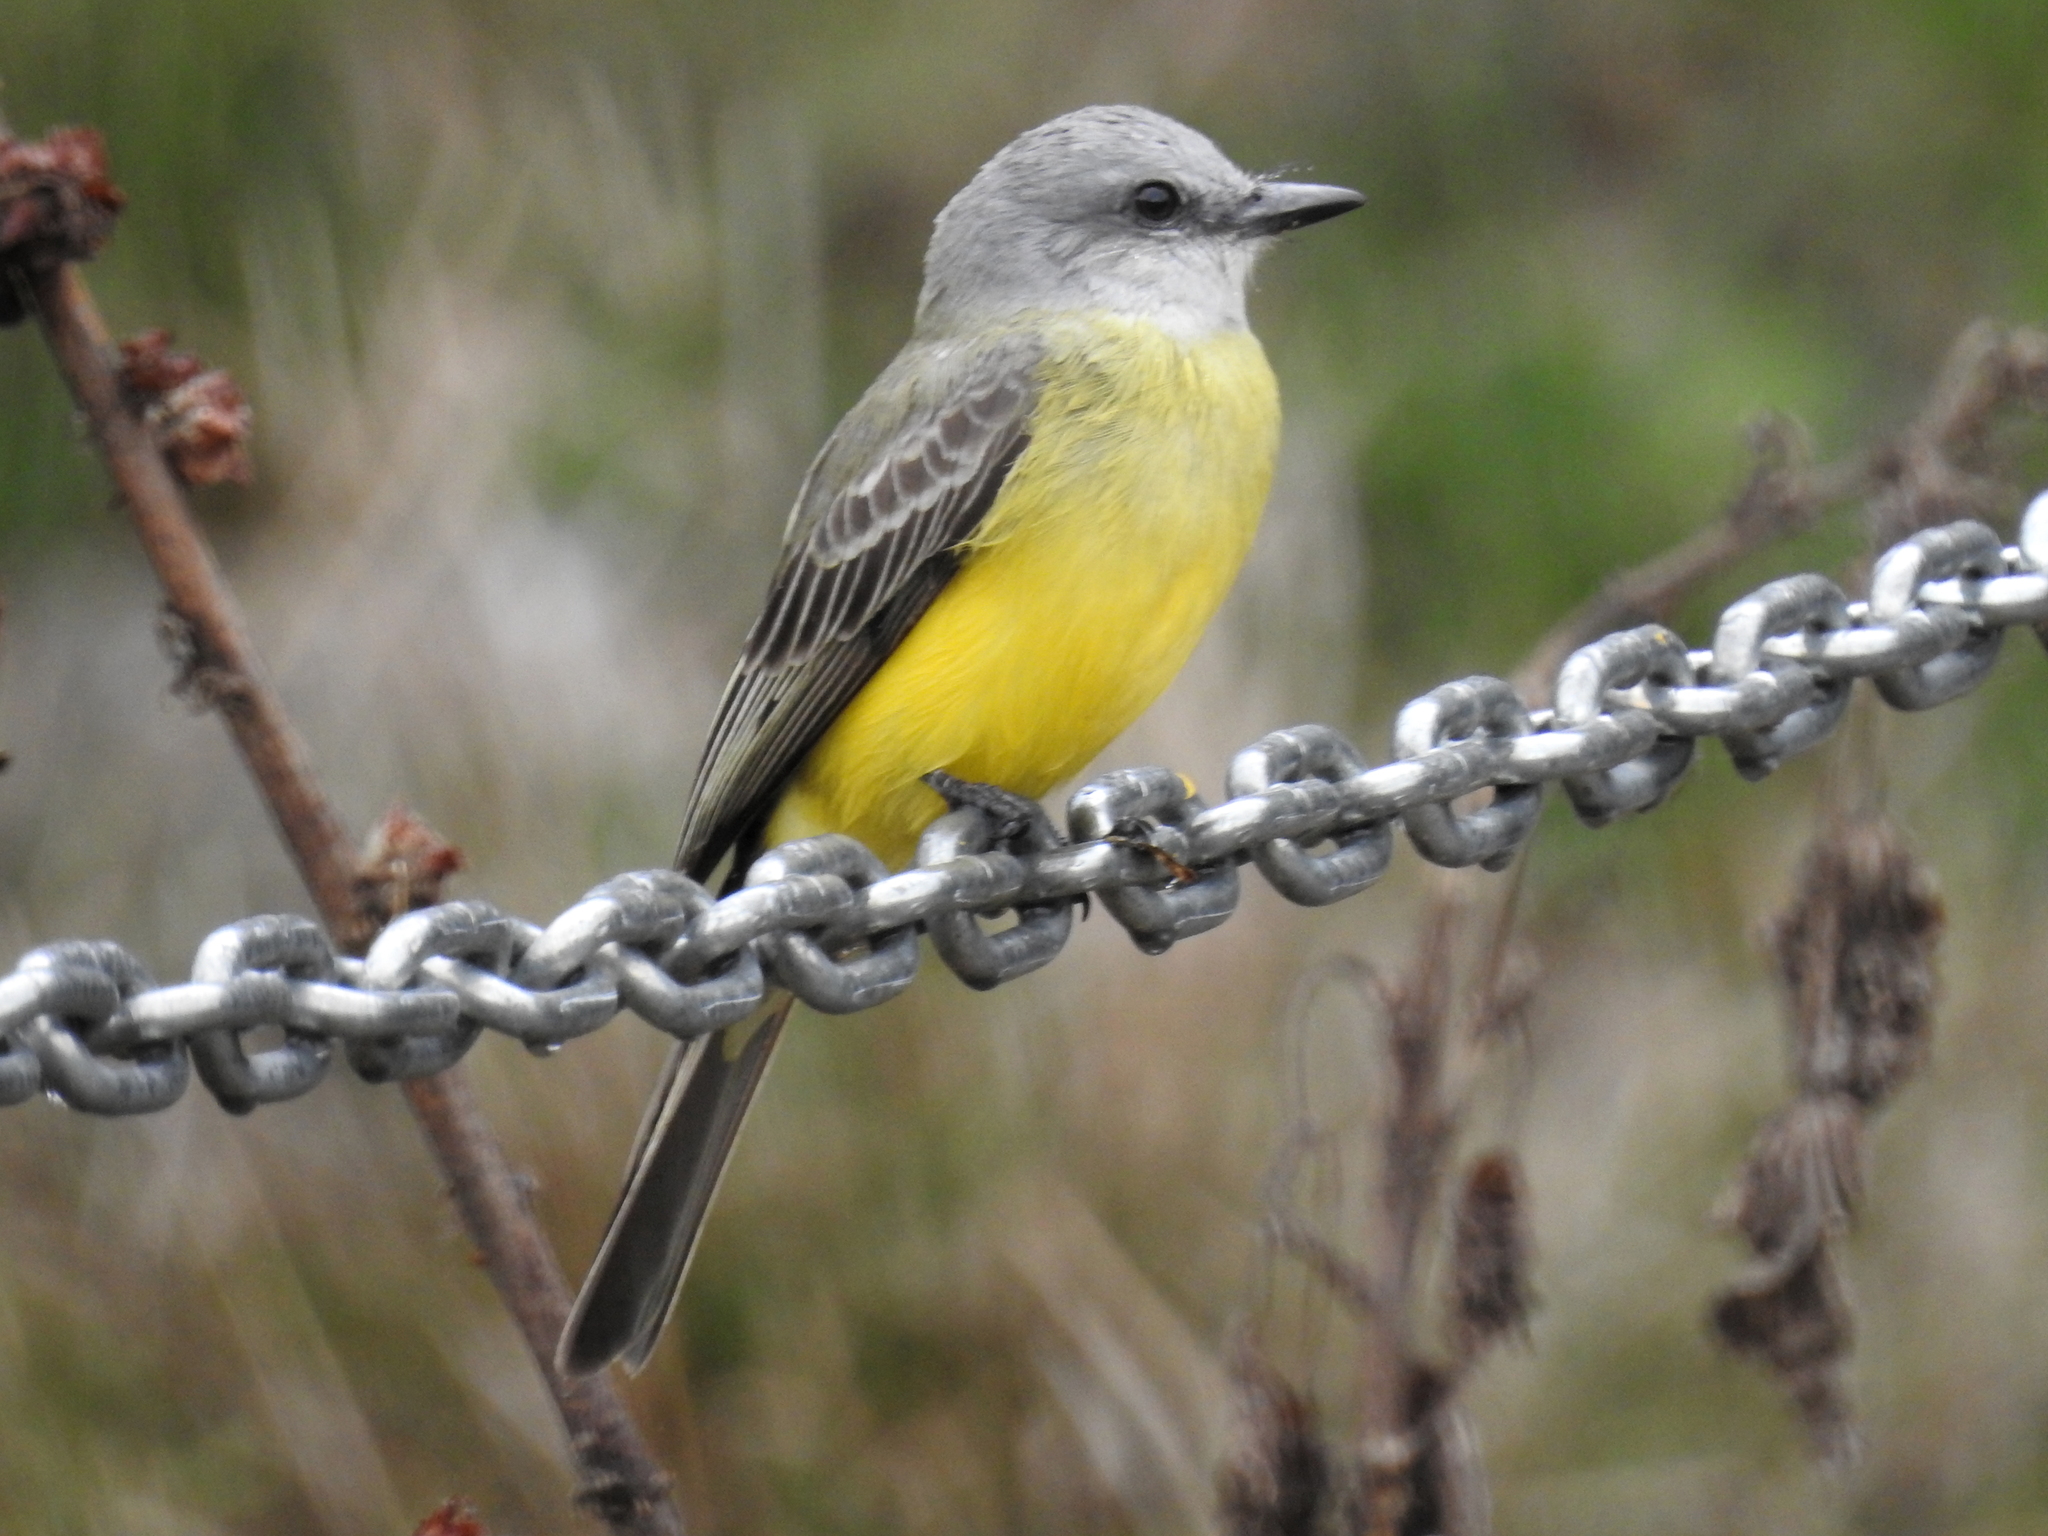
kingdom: Animalia
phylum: Chordata
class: Aves
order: Passeriformes
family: Tyrannidae
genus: Tyrannus
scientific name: Tyrannus melancholicus
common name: Tropical kingbird
